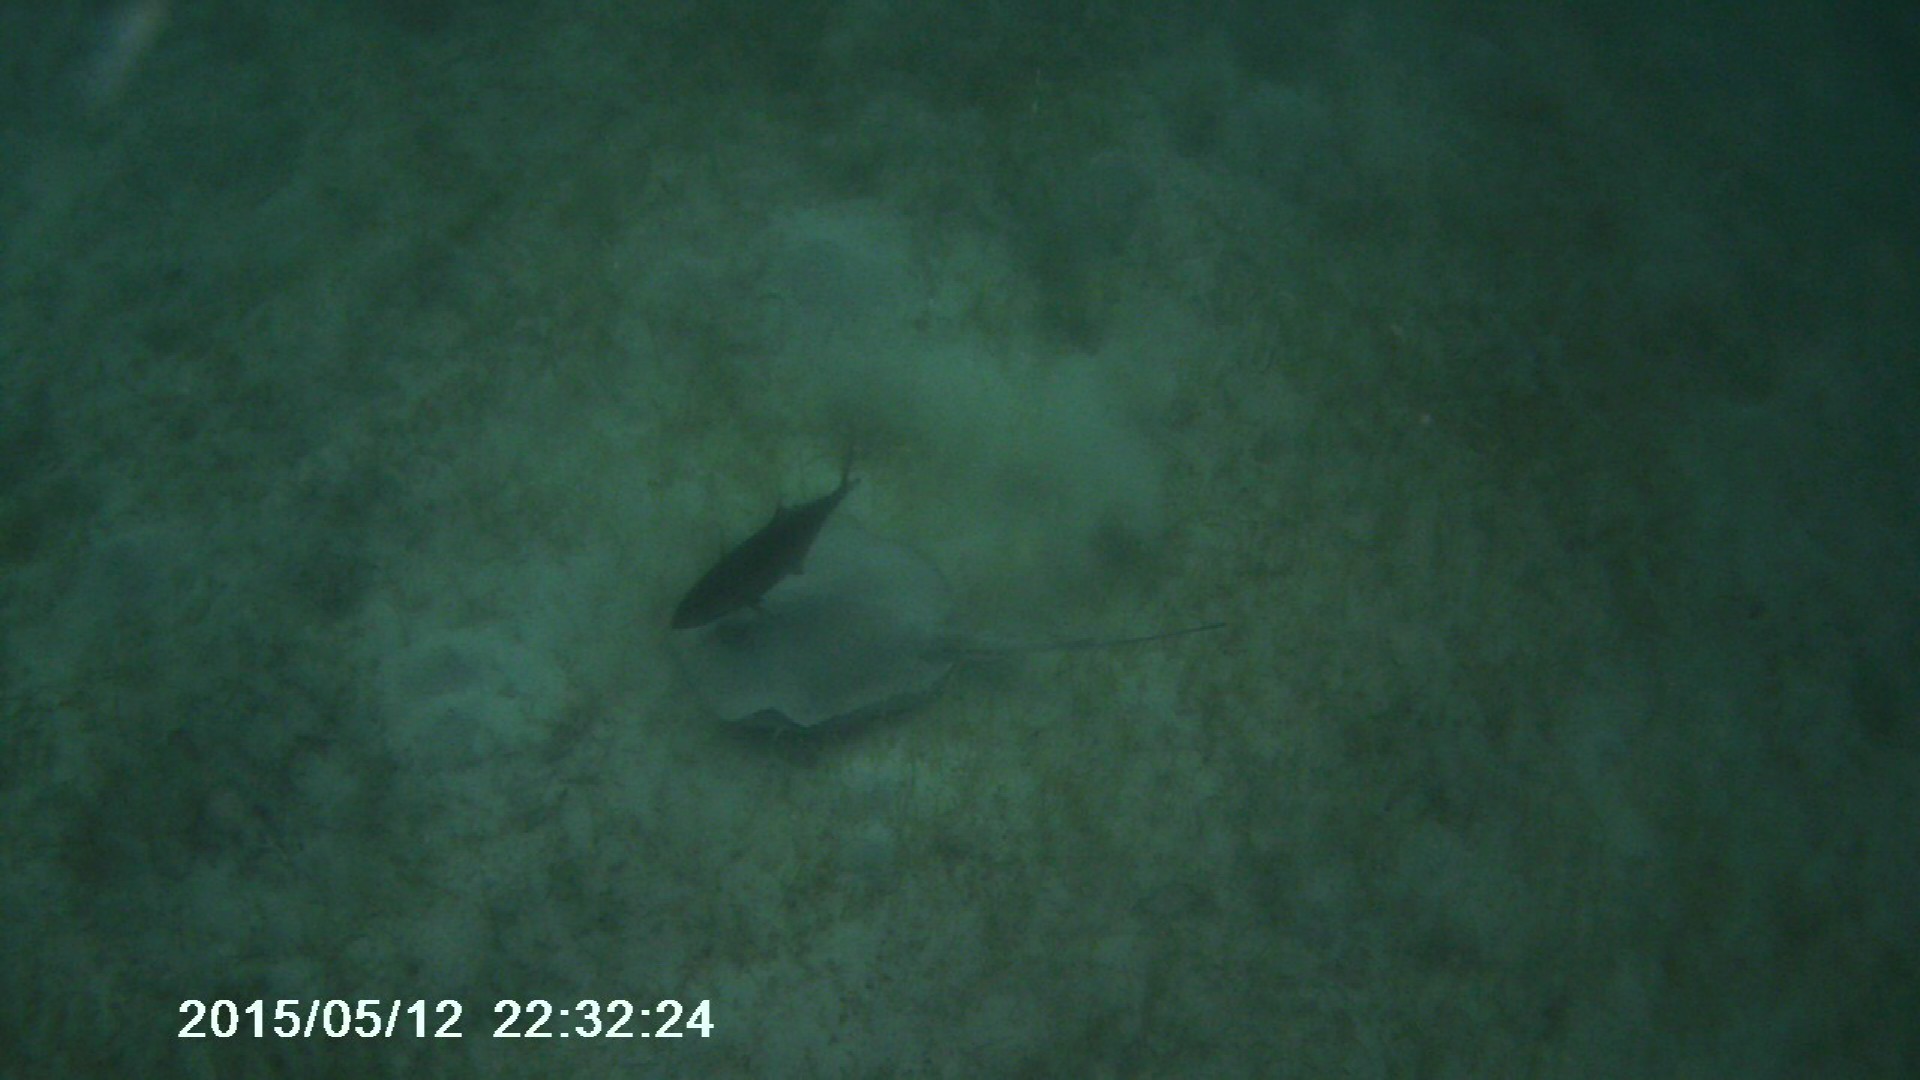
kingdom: Animalia
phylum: Chordata
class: Elasmobranchii
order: Myliobatiformes
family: Dasyatidae
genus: Hypanus
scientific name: Hypanus americanus
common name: Southern stingray
